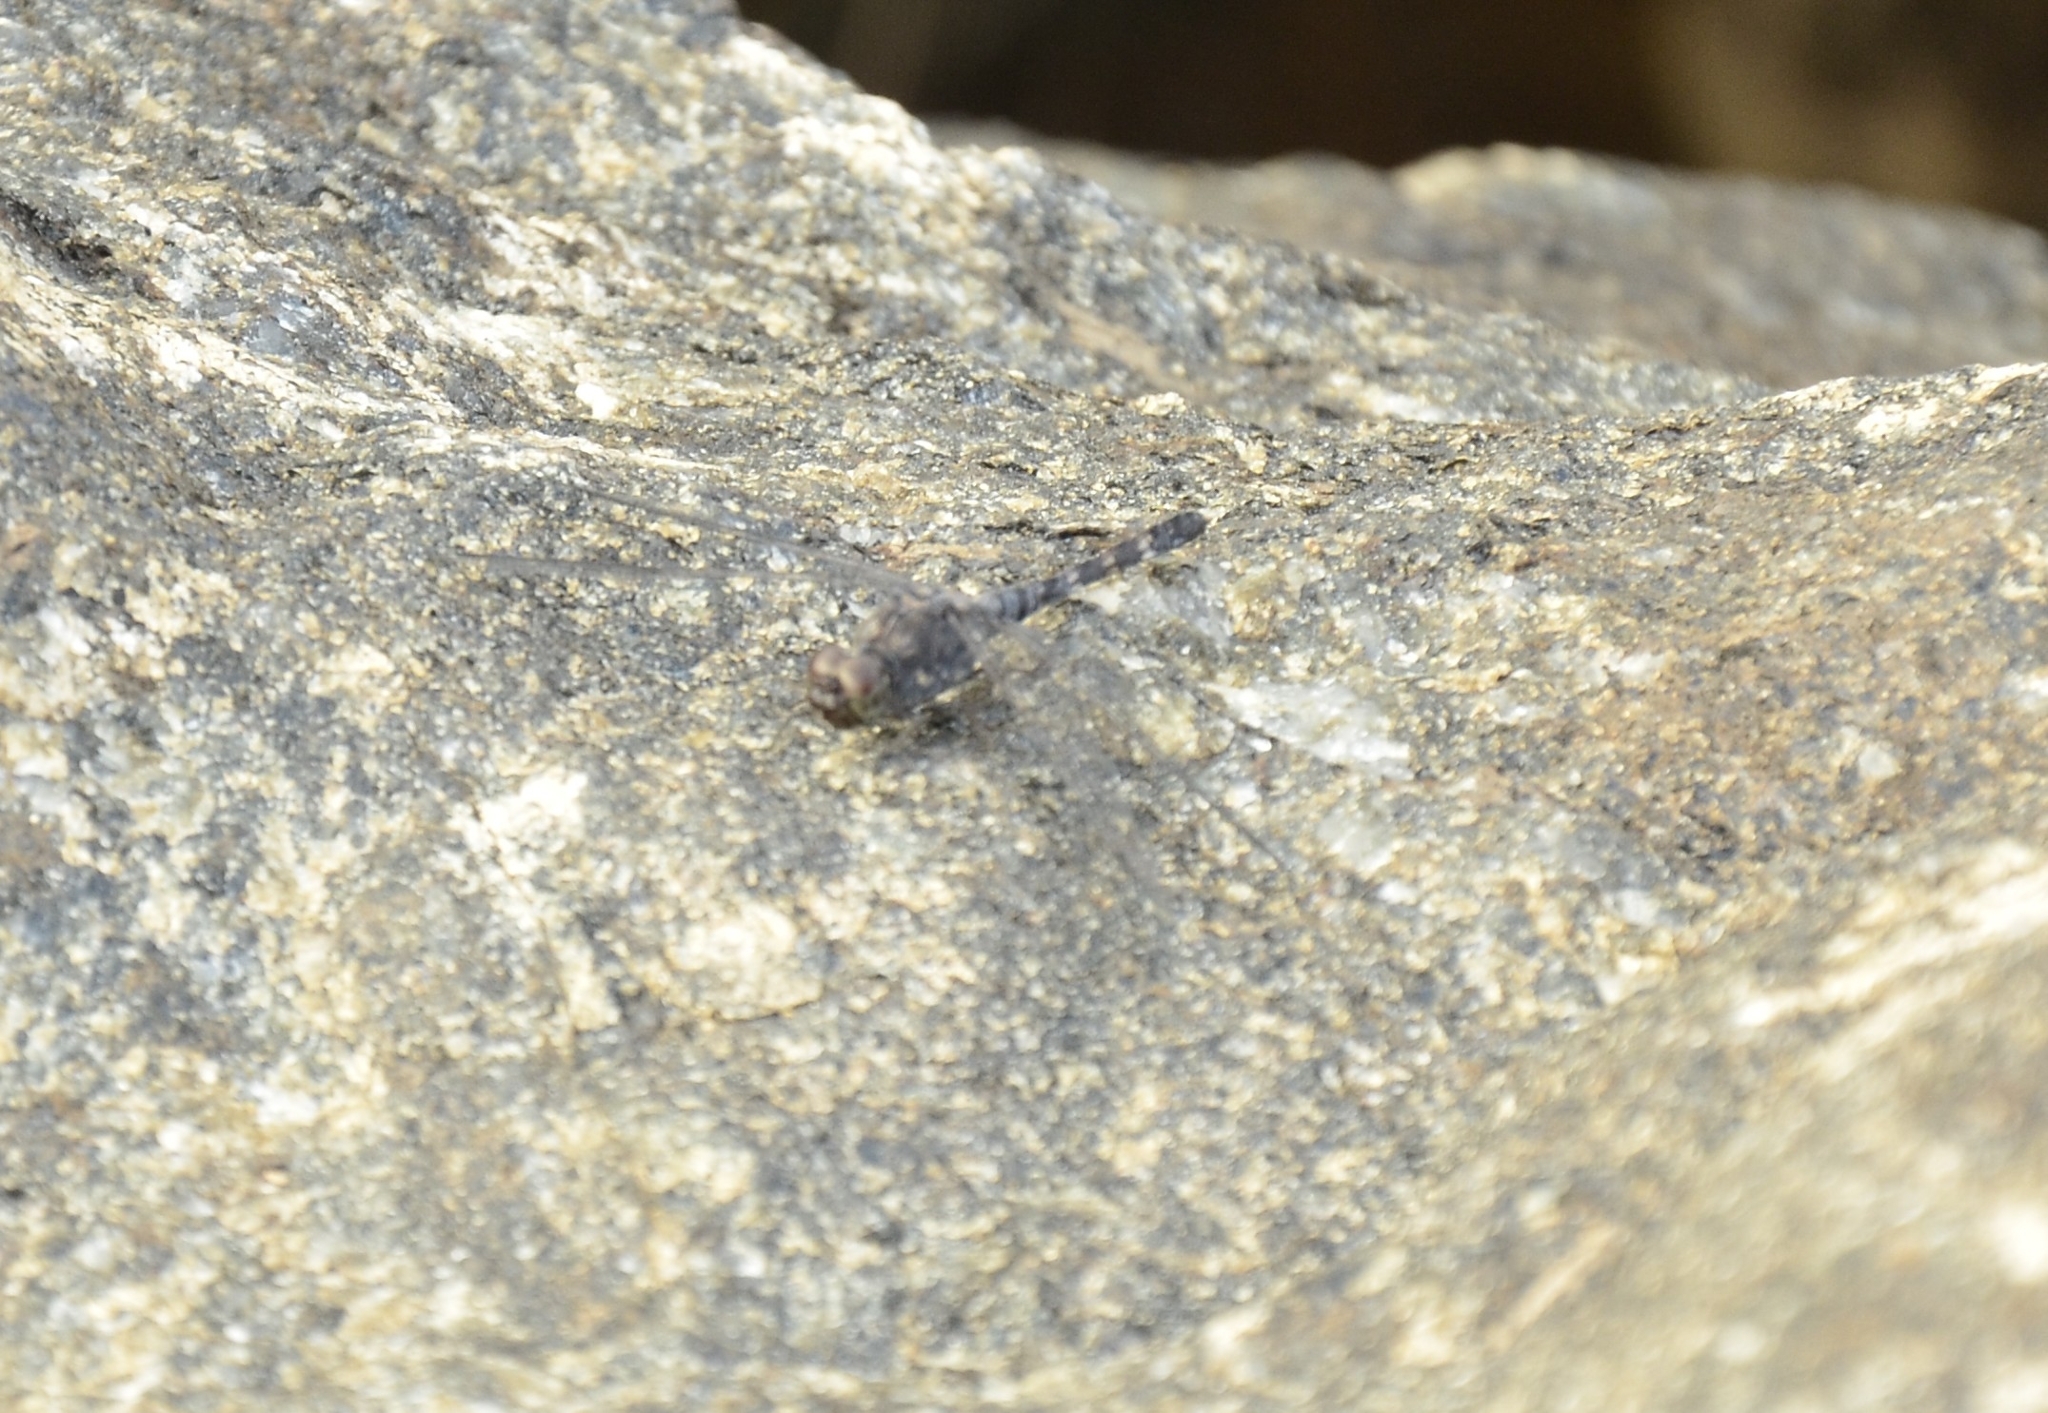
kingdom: Animalia
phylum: Arthropoda
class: Insecta
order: Odonata
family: Libellulidae
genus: Bradinopyga
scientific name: Bradinopyga geminata
